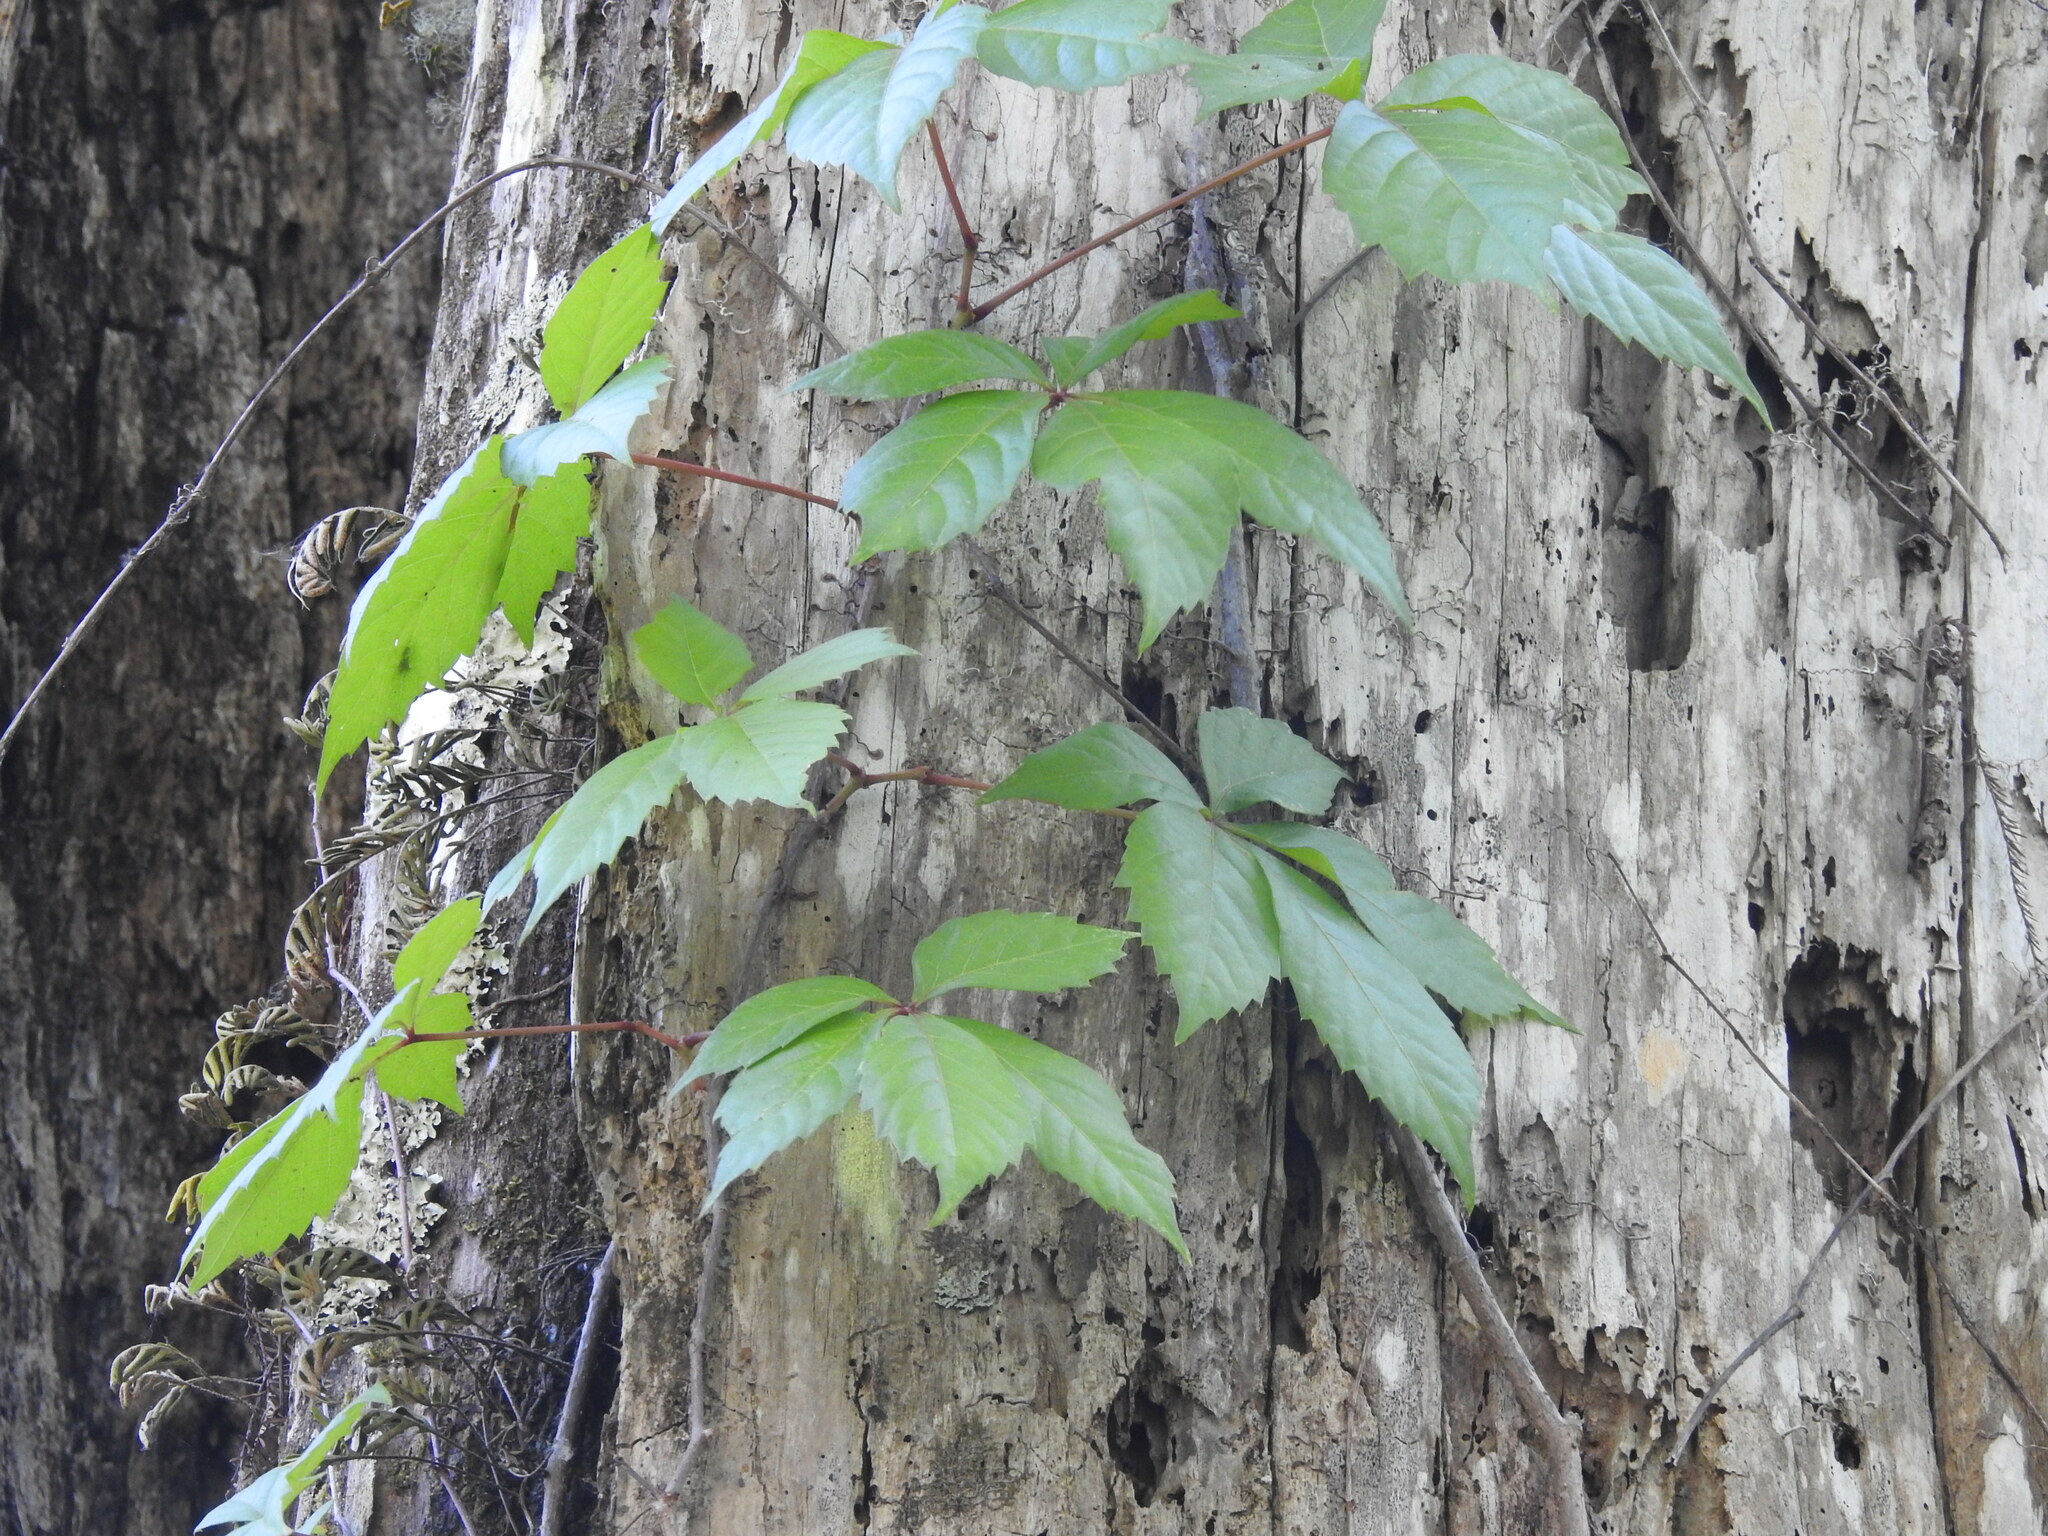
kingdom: Plantae
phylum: Tracheophyta
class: Magnoliopsida
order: Vitales
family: Vitaceae
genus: Parthenocissus
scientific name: Parthenocissus quinquefolia
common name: Virginia-creeper
